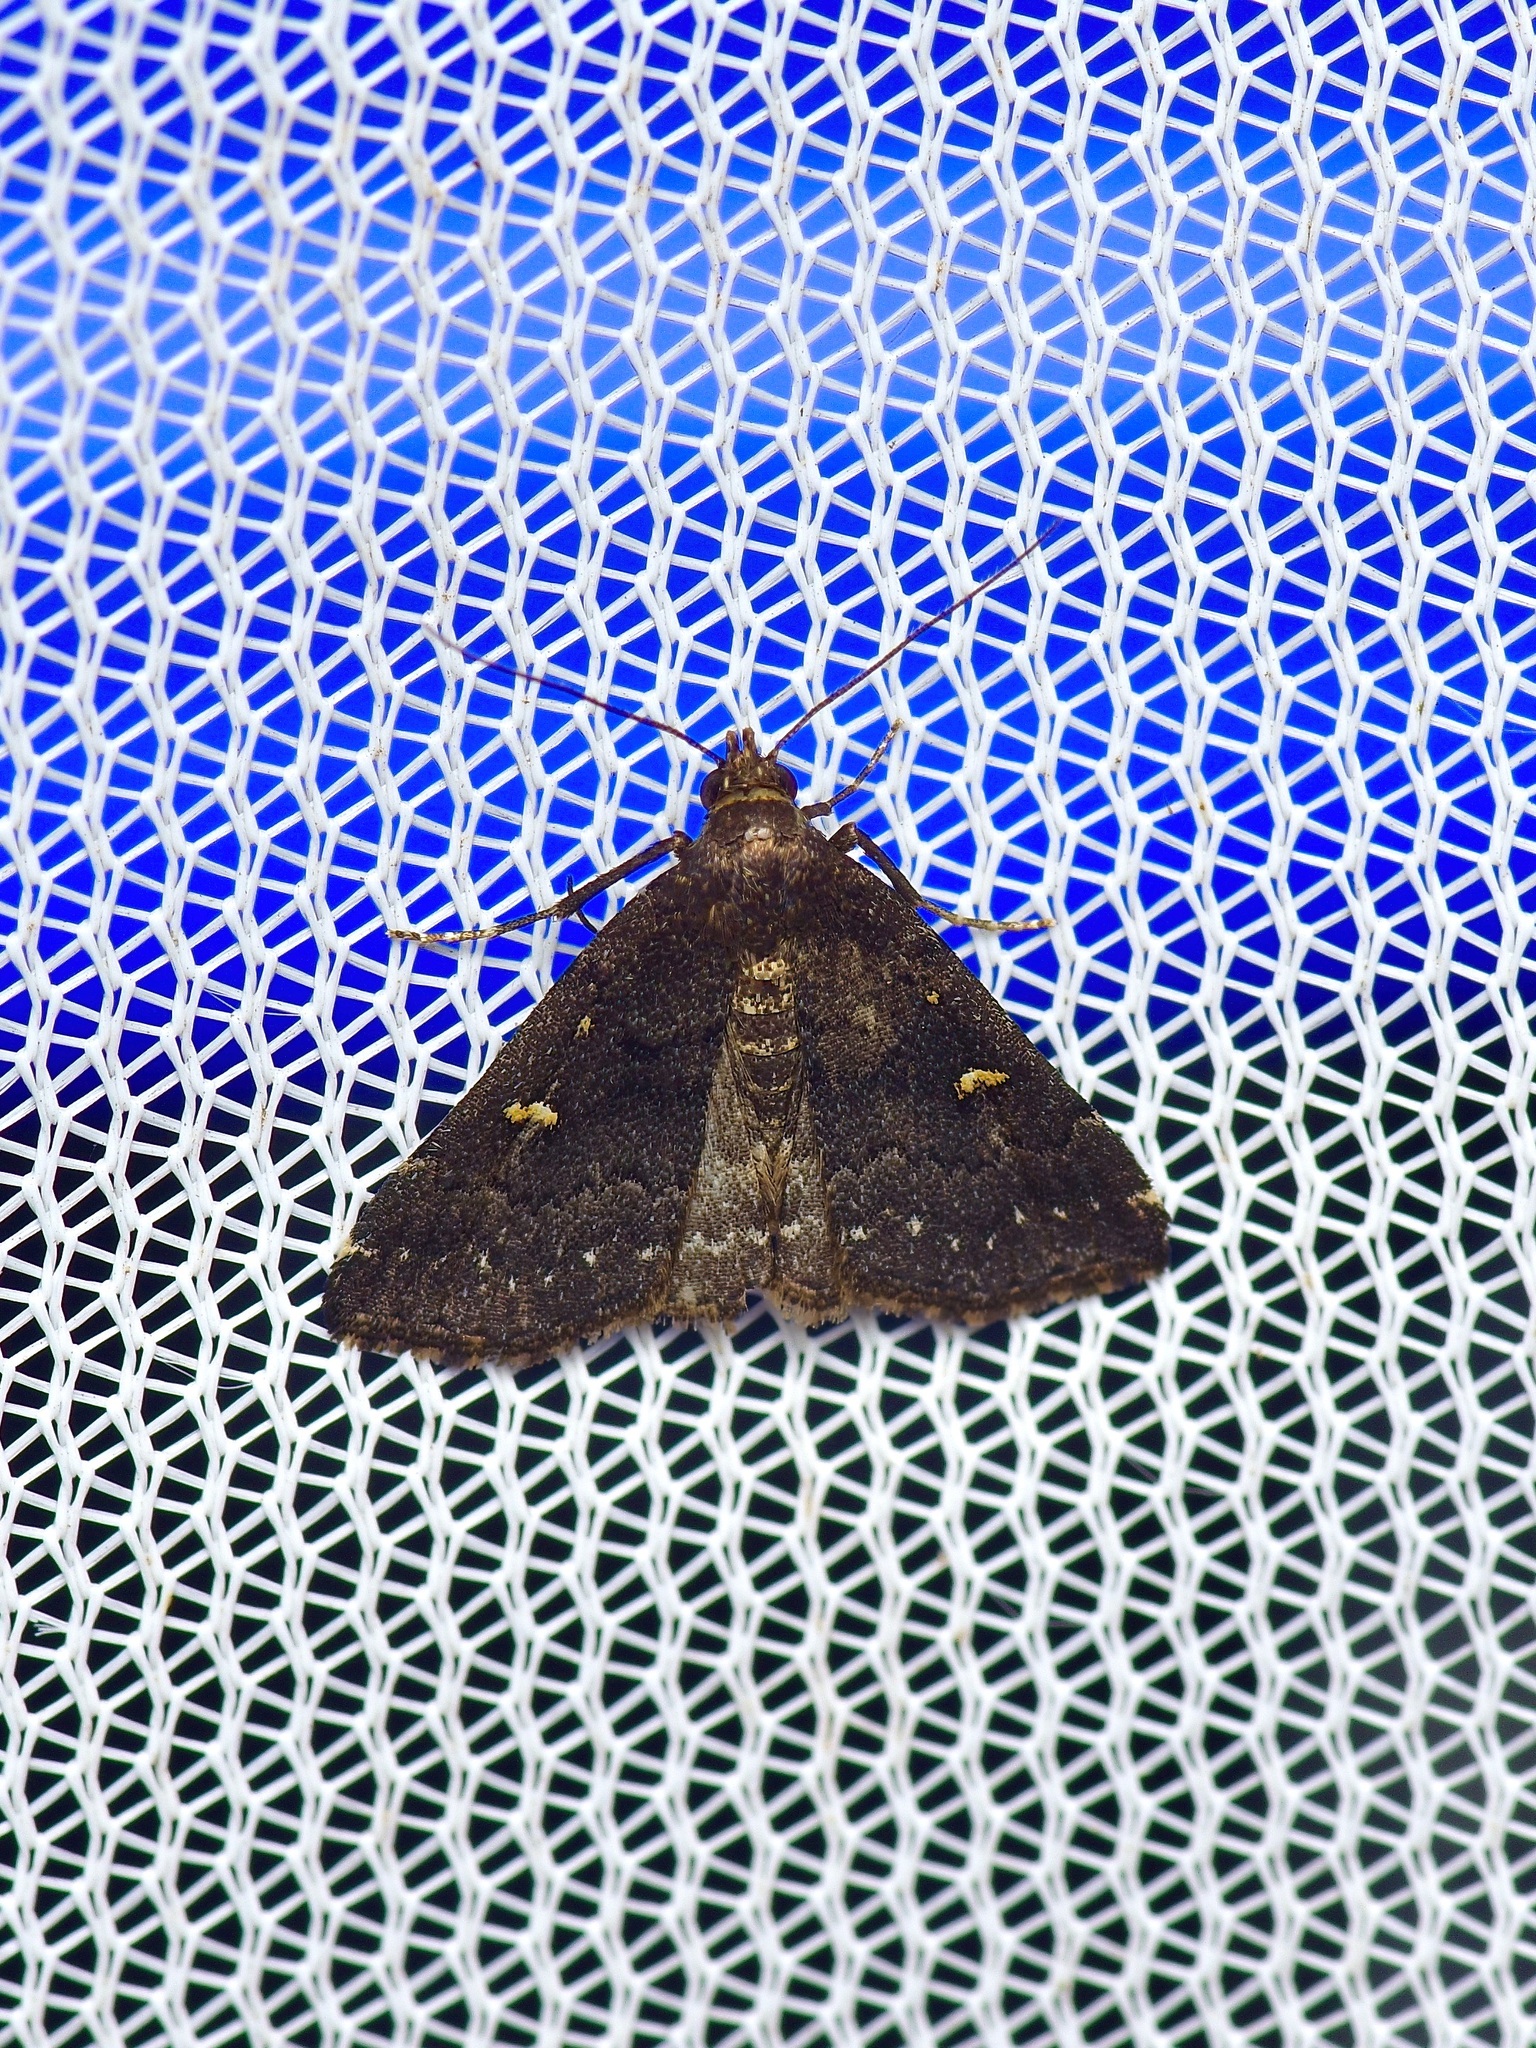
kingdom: Animalia
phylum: Arthropoda
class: Insecta
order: Lepidoptera
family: Erebidae
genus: Tetanolita
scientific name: Tetanolita mynesalis
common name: Smoky tetanolita moth
